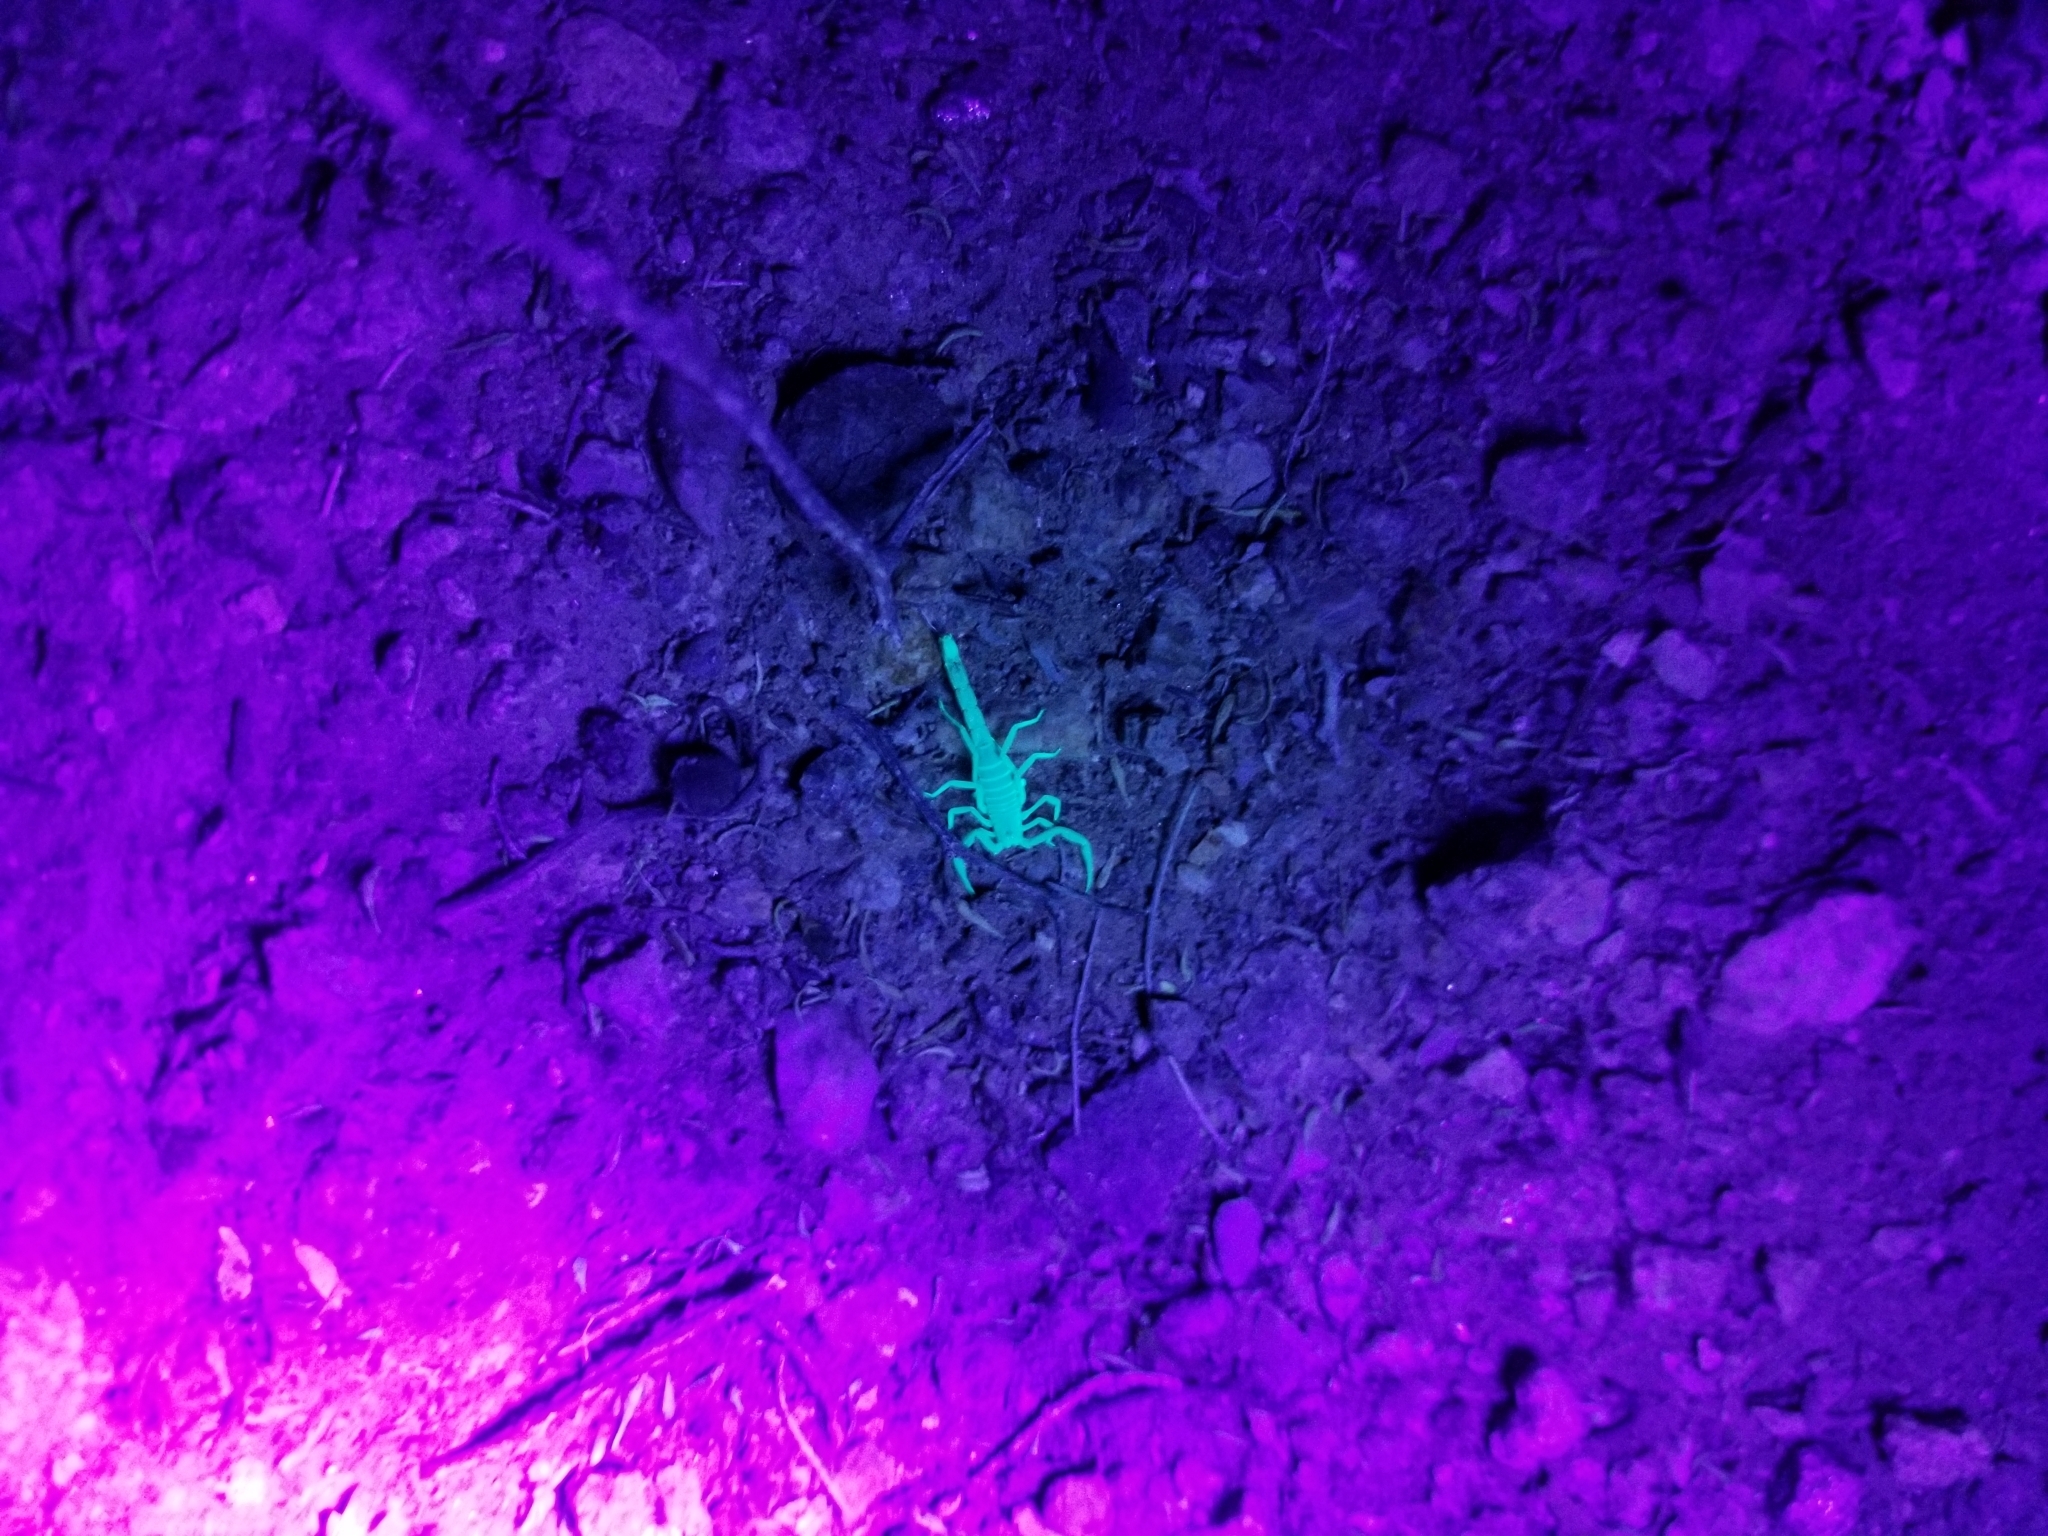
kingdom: Animalia
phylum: Arthropoda
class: Arachnida
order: Scorpiones
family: Vaejovidae
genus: Paravaejovis
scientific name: Paravaejovis waeringi
